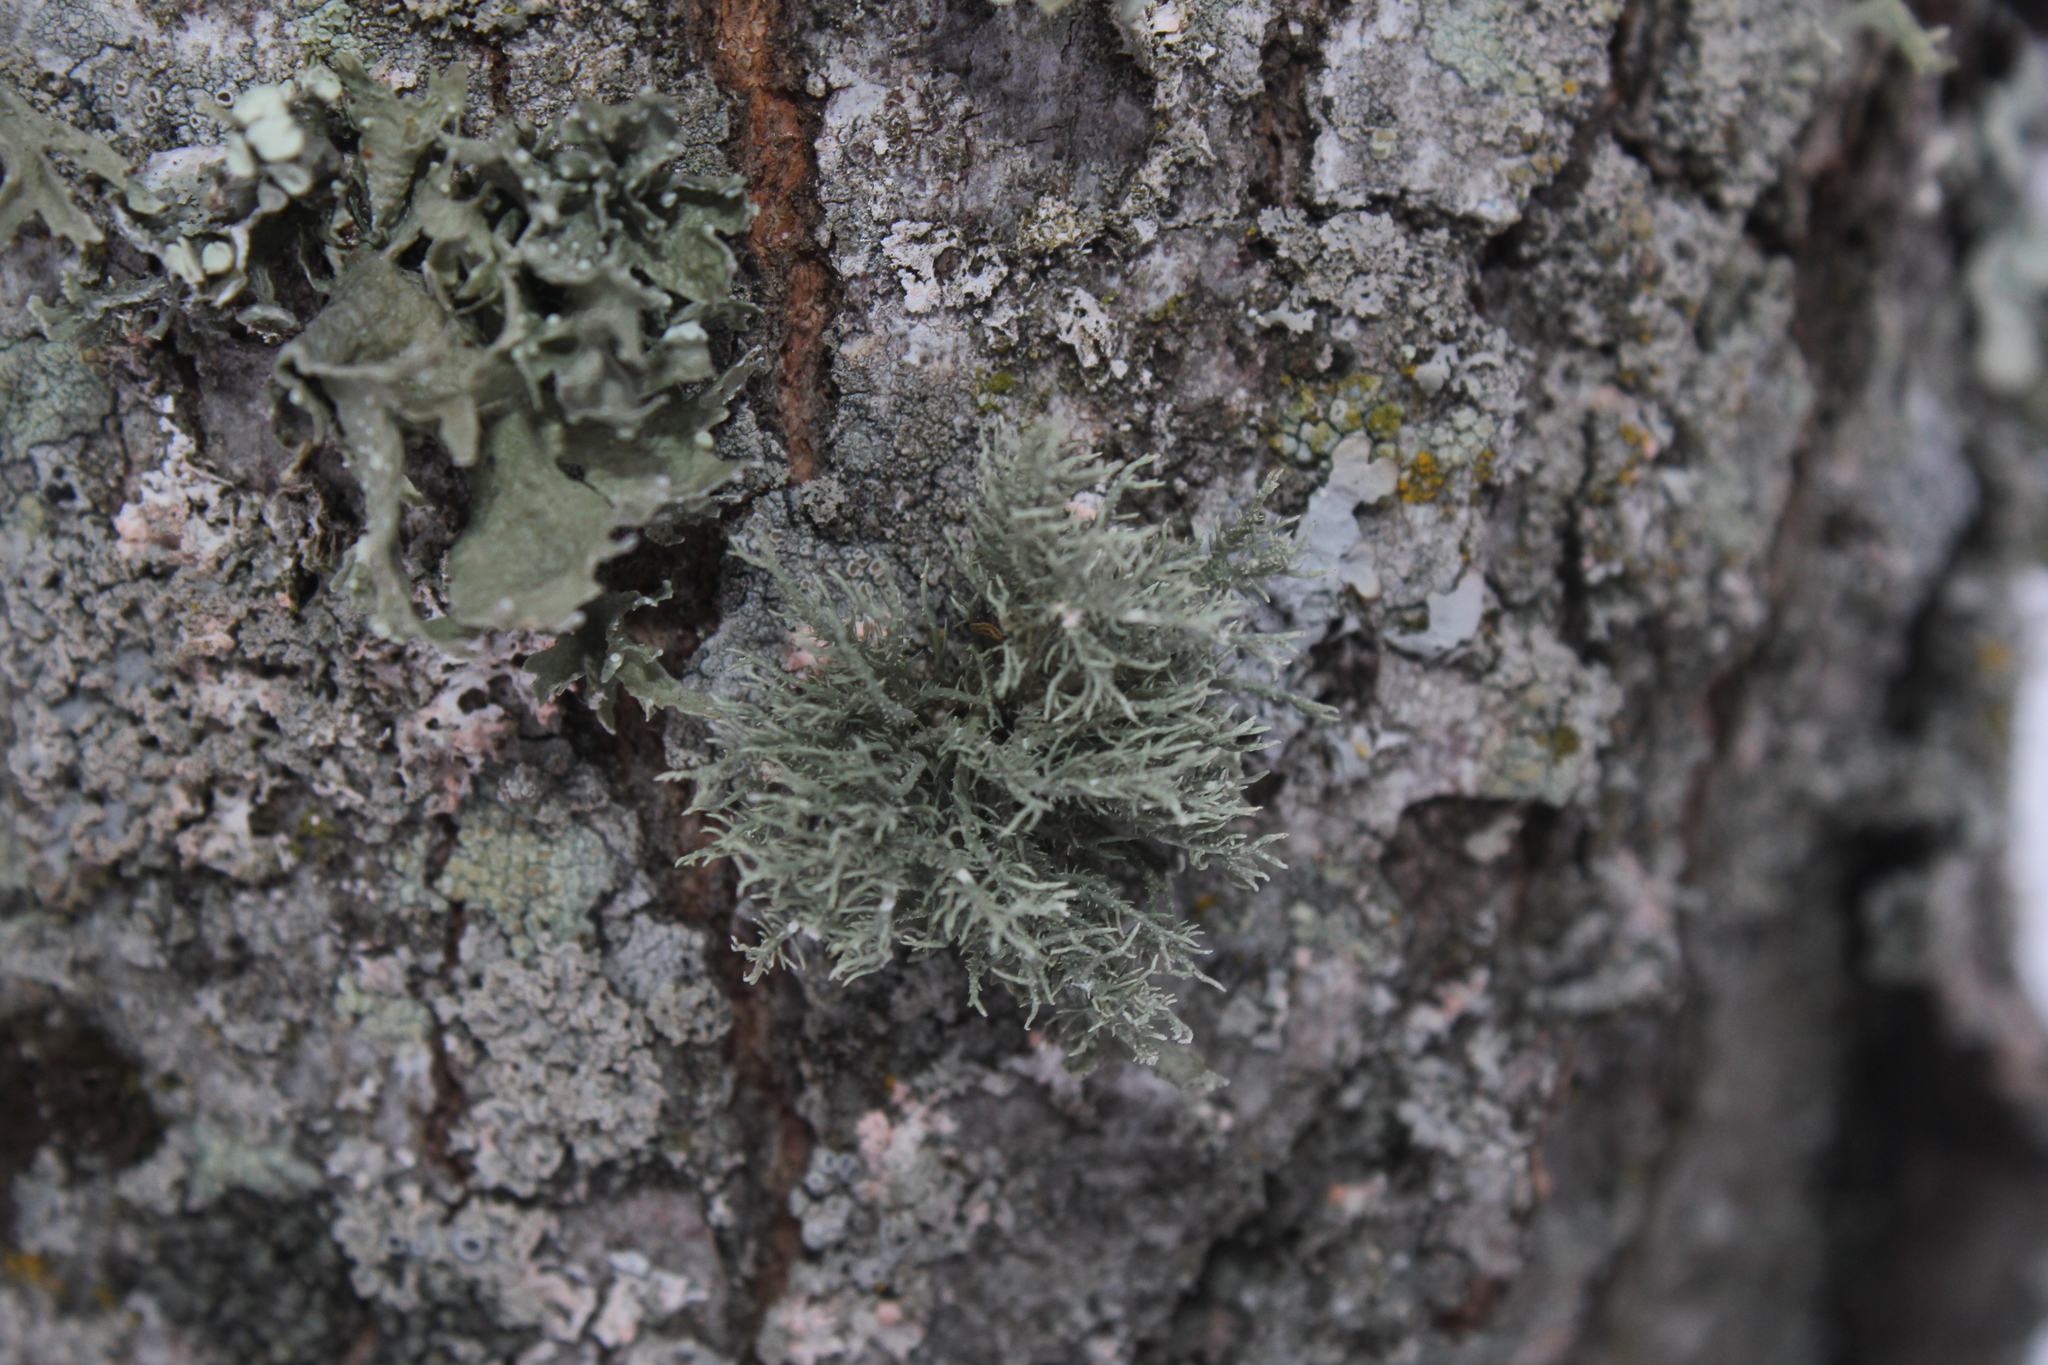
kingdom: Fungi
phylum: Ascomycota
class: Lecanoromycetes
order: Lecanorales
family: Parmeliaceae
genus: Usnea
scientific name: Usnea hirta
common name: Bristly beard lichen
